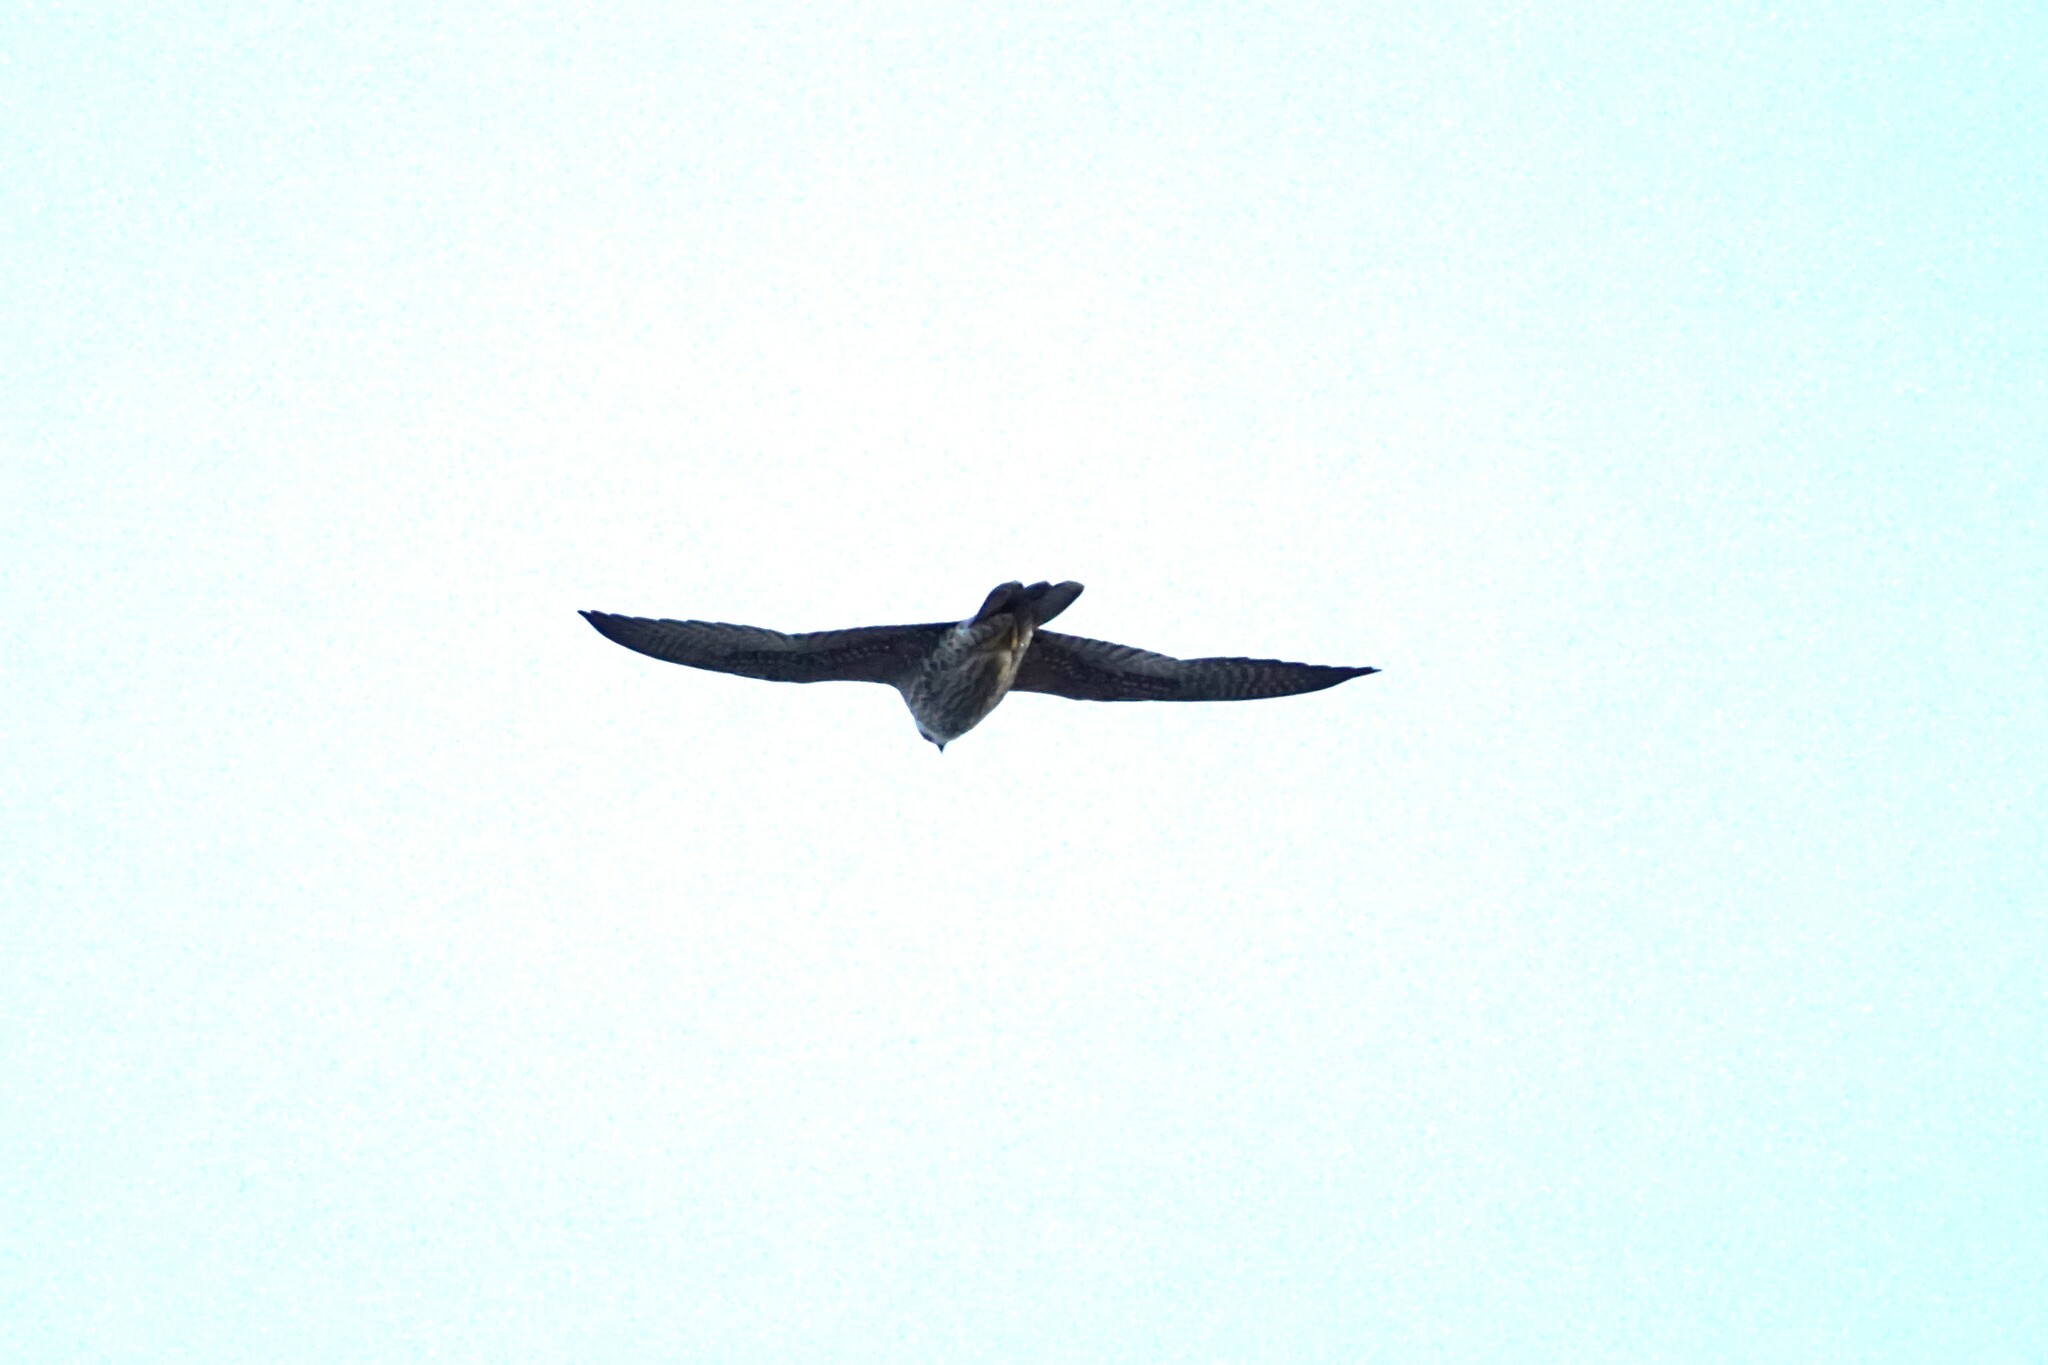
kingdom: Animalia
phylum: Chordata
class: Aves
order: Falconiformes
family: Falconidae
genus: Falco
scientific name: Falco peregrinus
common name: Peregrine falcon
